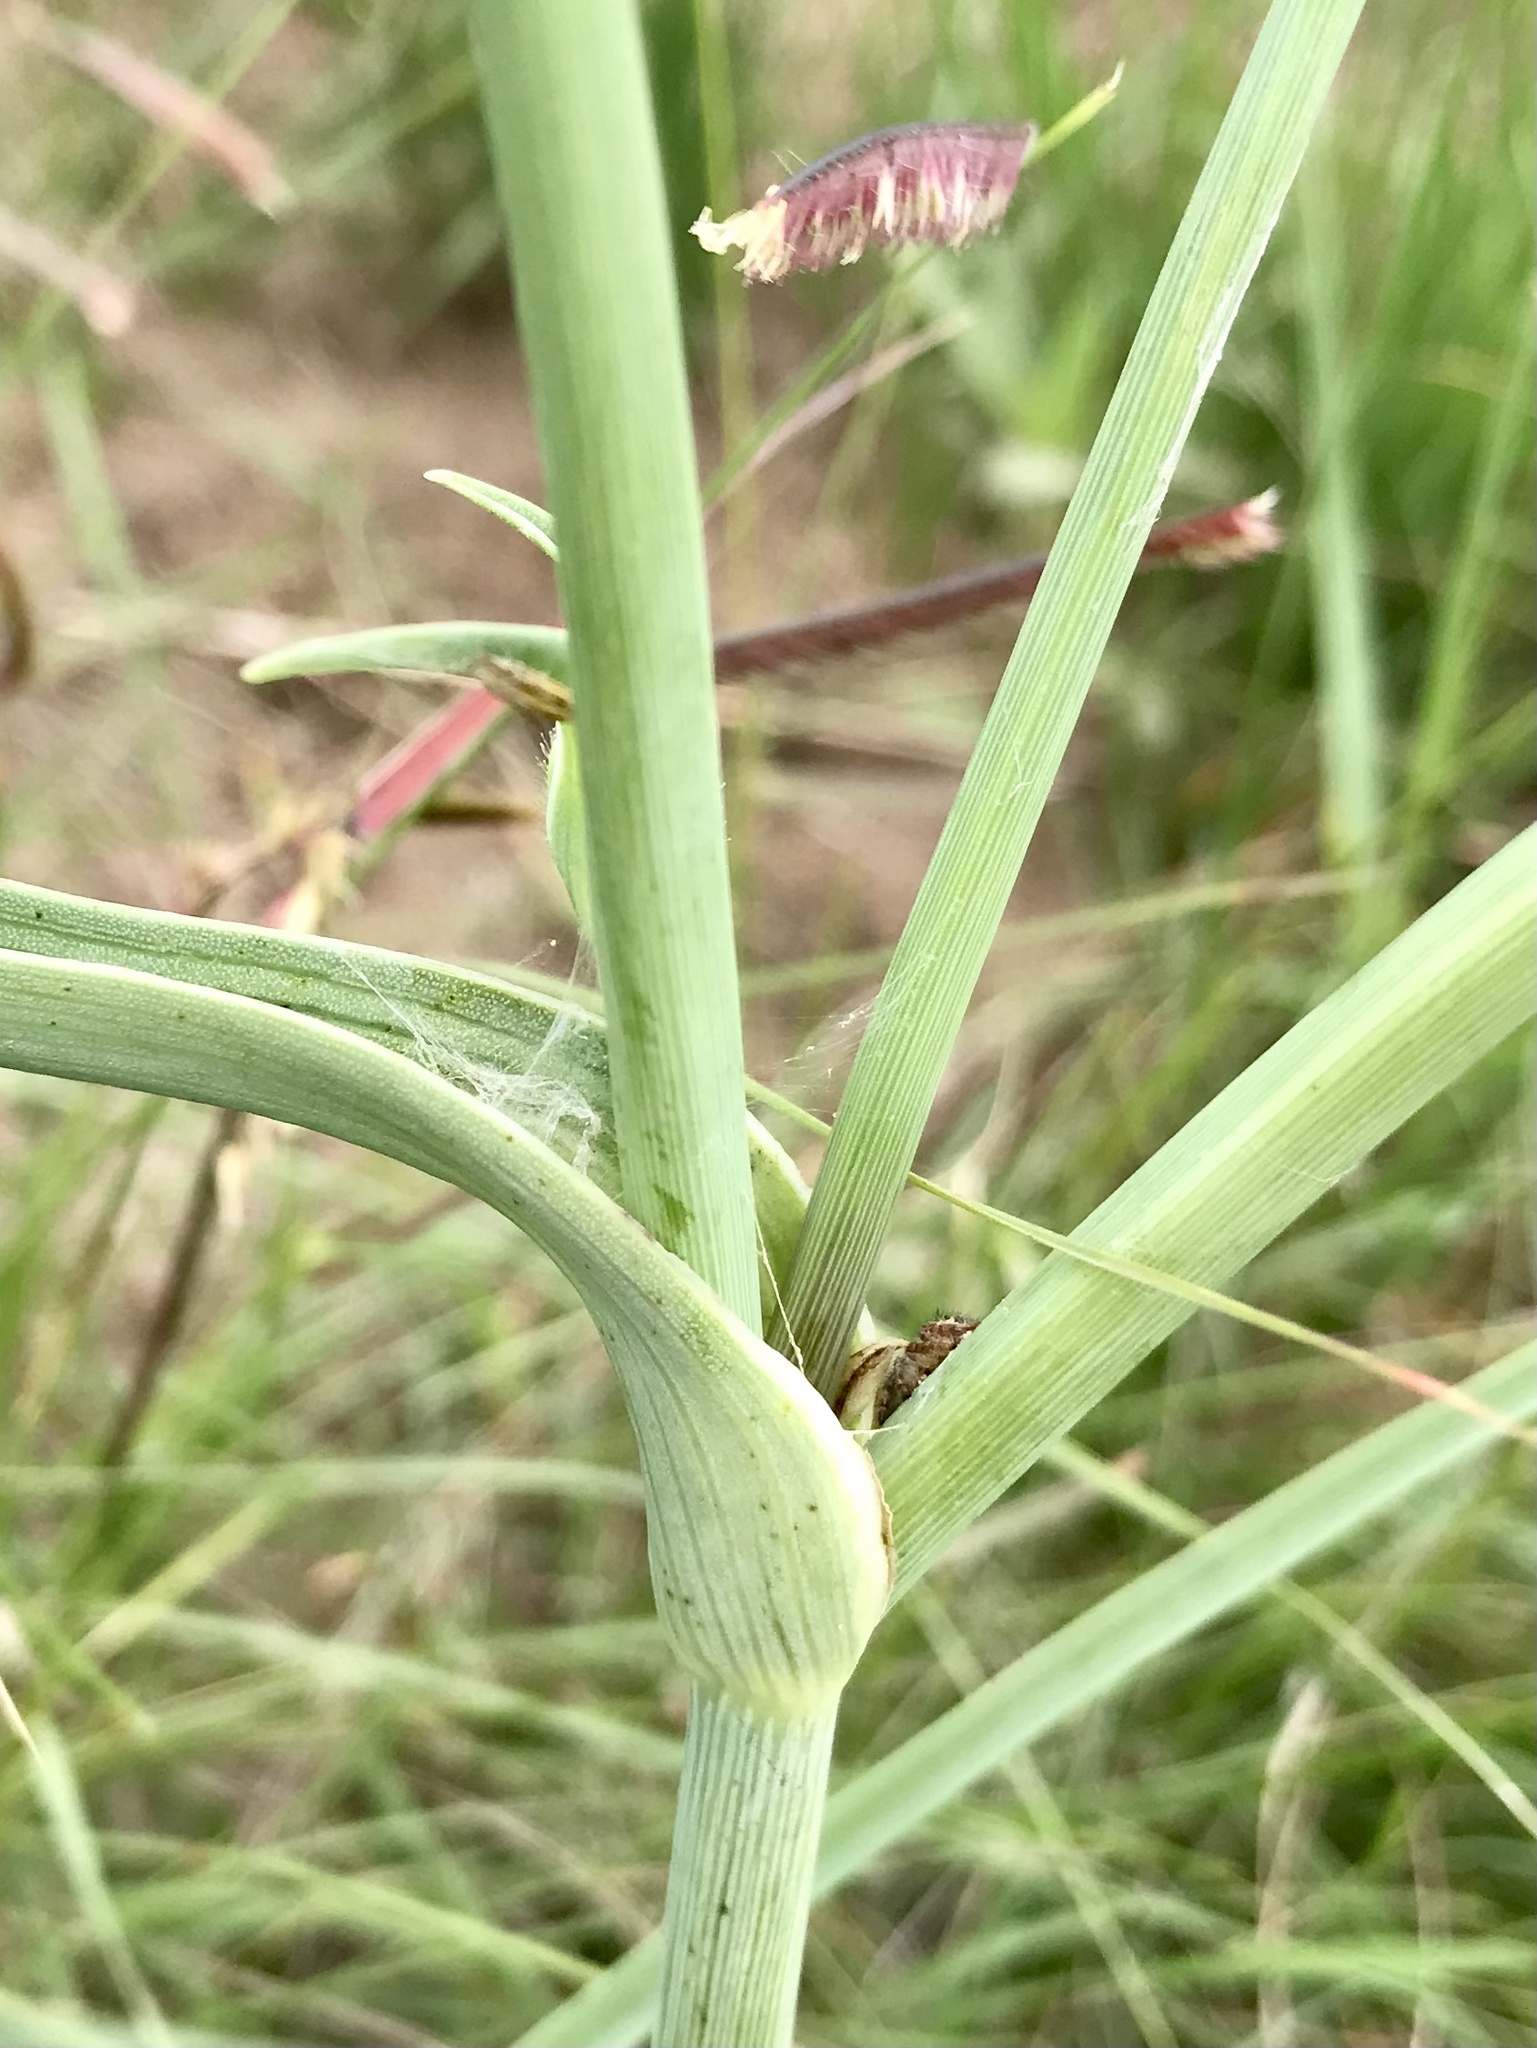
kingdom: Plantae
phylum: Tracheophyta
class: Liliopsida
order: Commelinales
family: Commelinaceae
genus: Tradescantia
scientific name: Tradescantia occidentalis
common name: Prairie spiderwort
